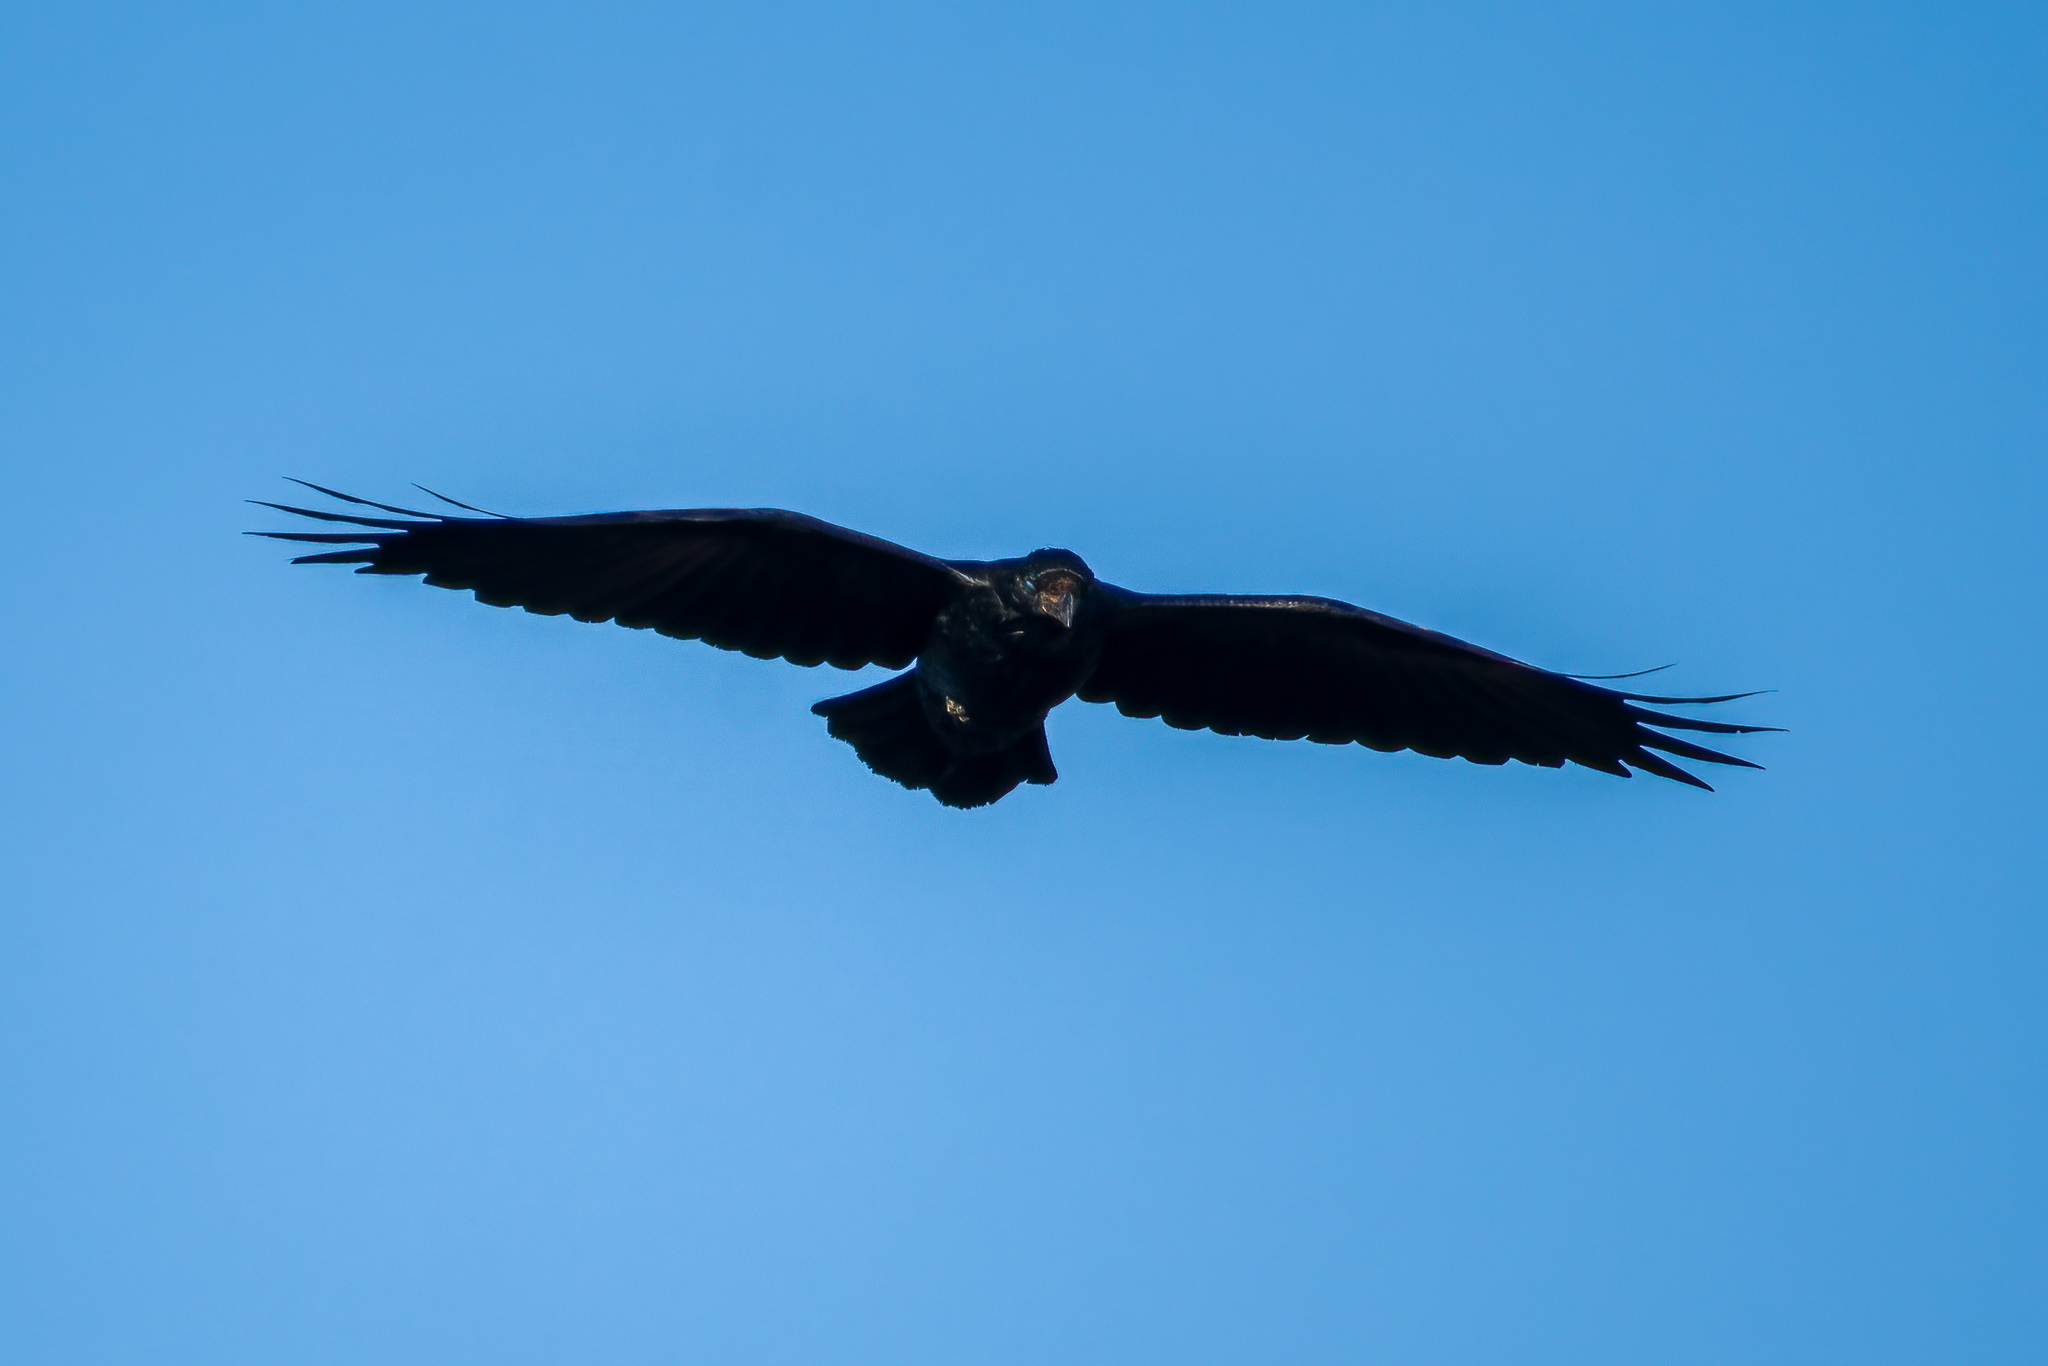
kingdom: Animalia
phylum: Chordata
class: Aves
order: Passeriformes
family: Corvidae
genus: Corvus
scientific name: Corvus corax
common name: Common raven
